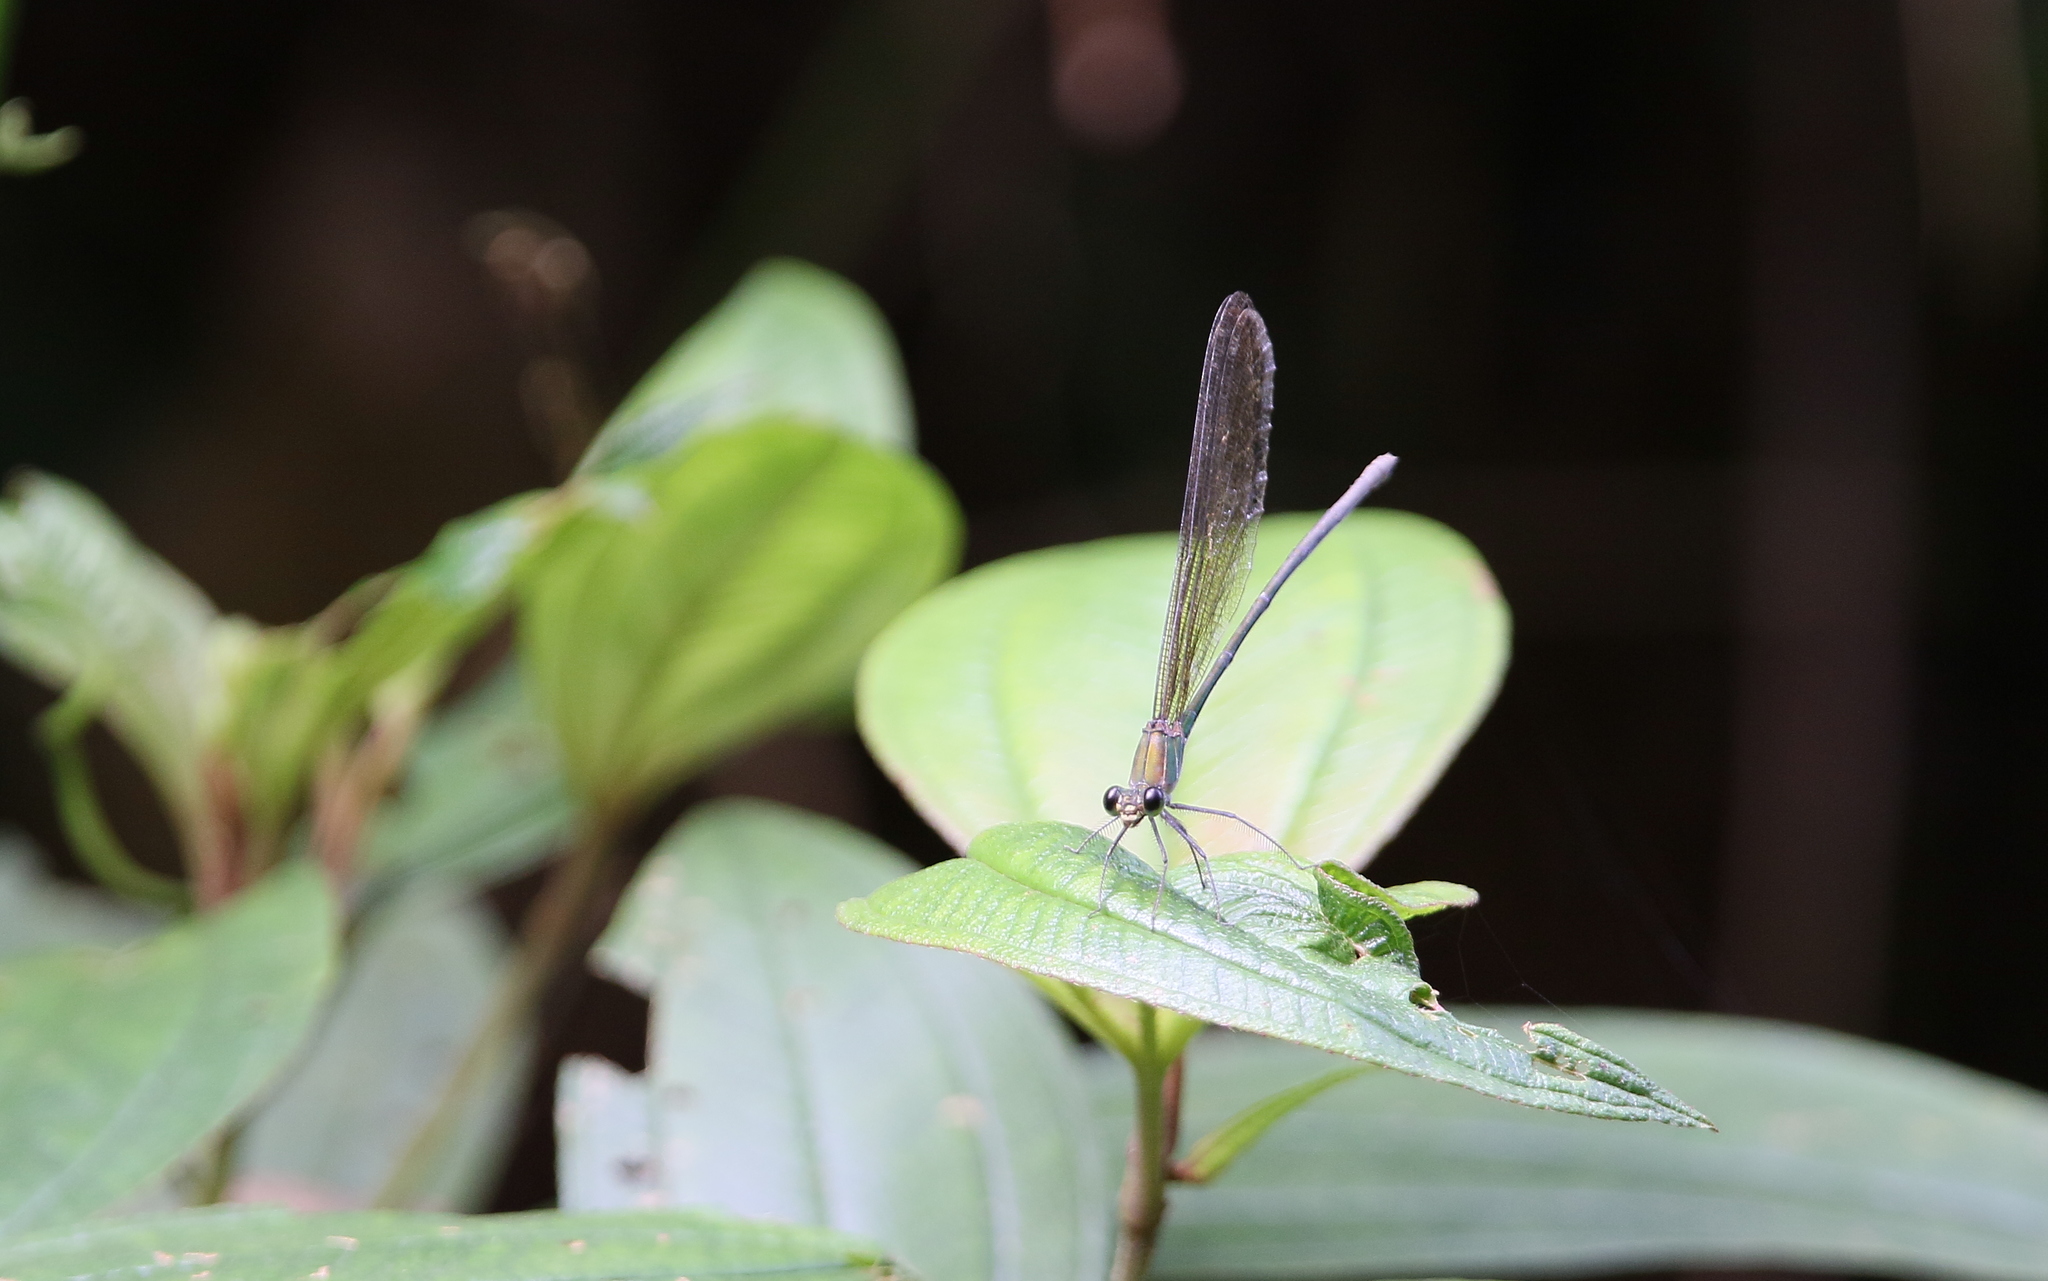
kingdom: Animalia
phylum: Arthropoda
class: Insecta
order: Odonata
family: Calopterygidae
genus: Vestalis
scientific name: Vestalis gracilis
